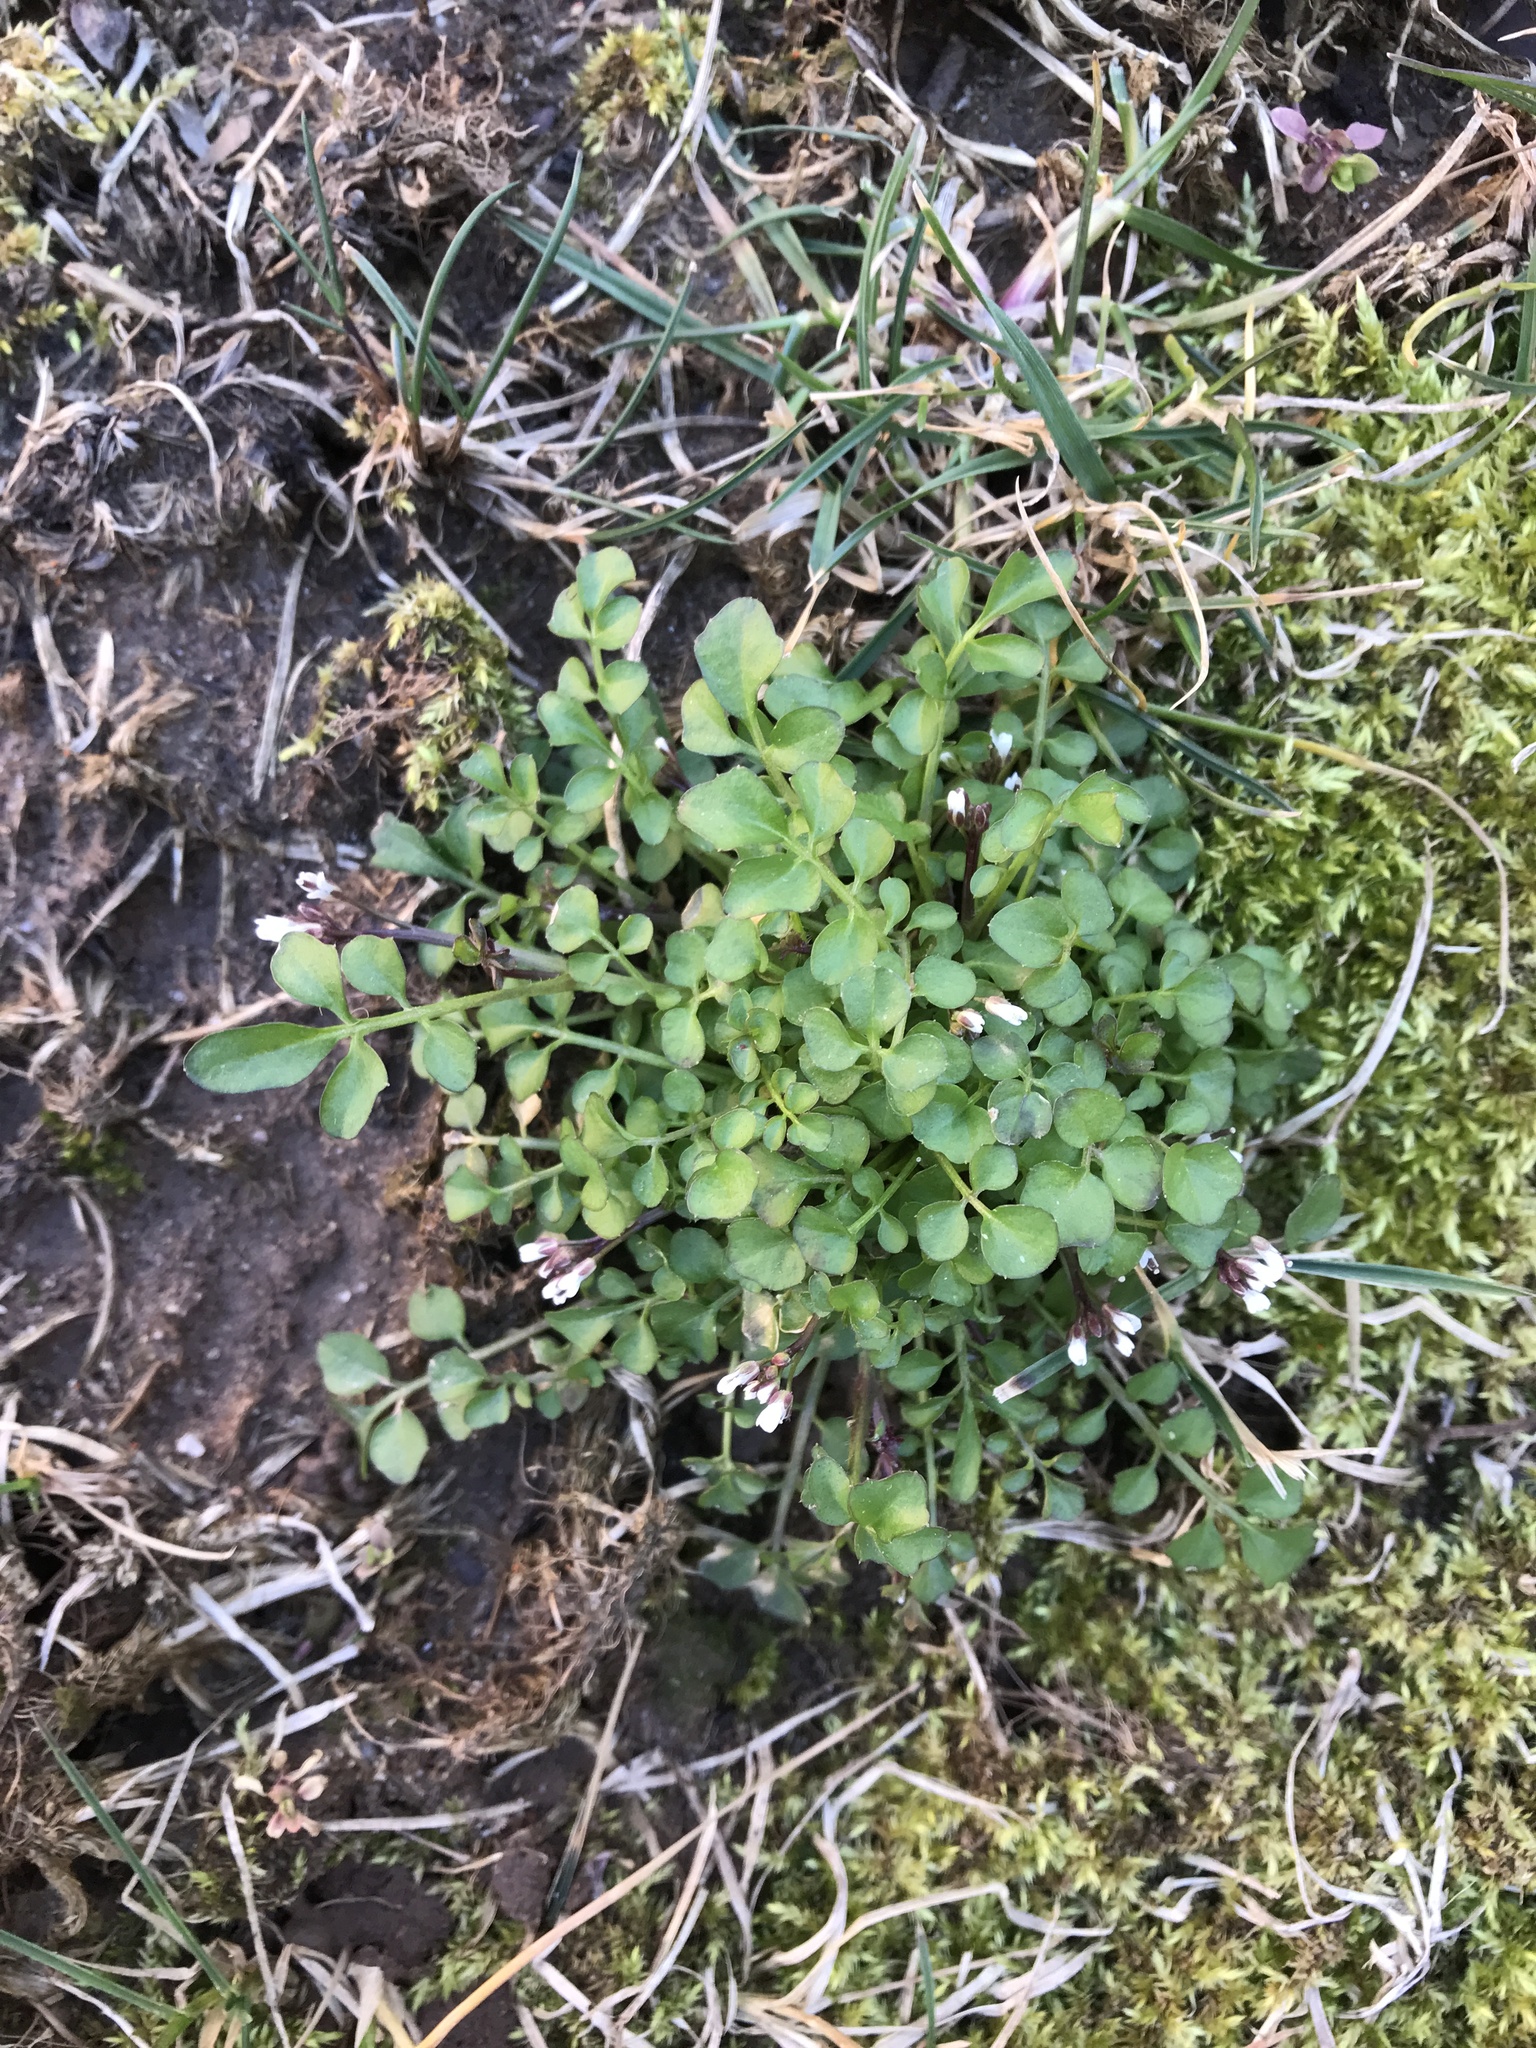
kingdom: Plantae
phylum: Tracheophyta
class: Magnoliopsida
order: Brassicales
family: Brassicaceae
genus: Cardamine
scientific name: Cardamine hirsuta
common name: Hairy bittercress
